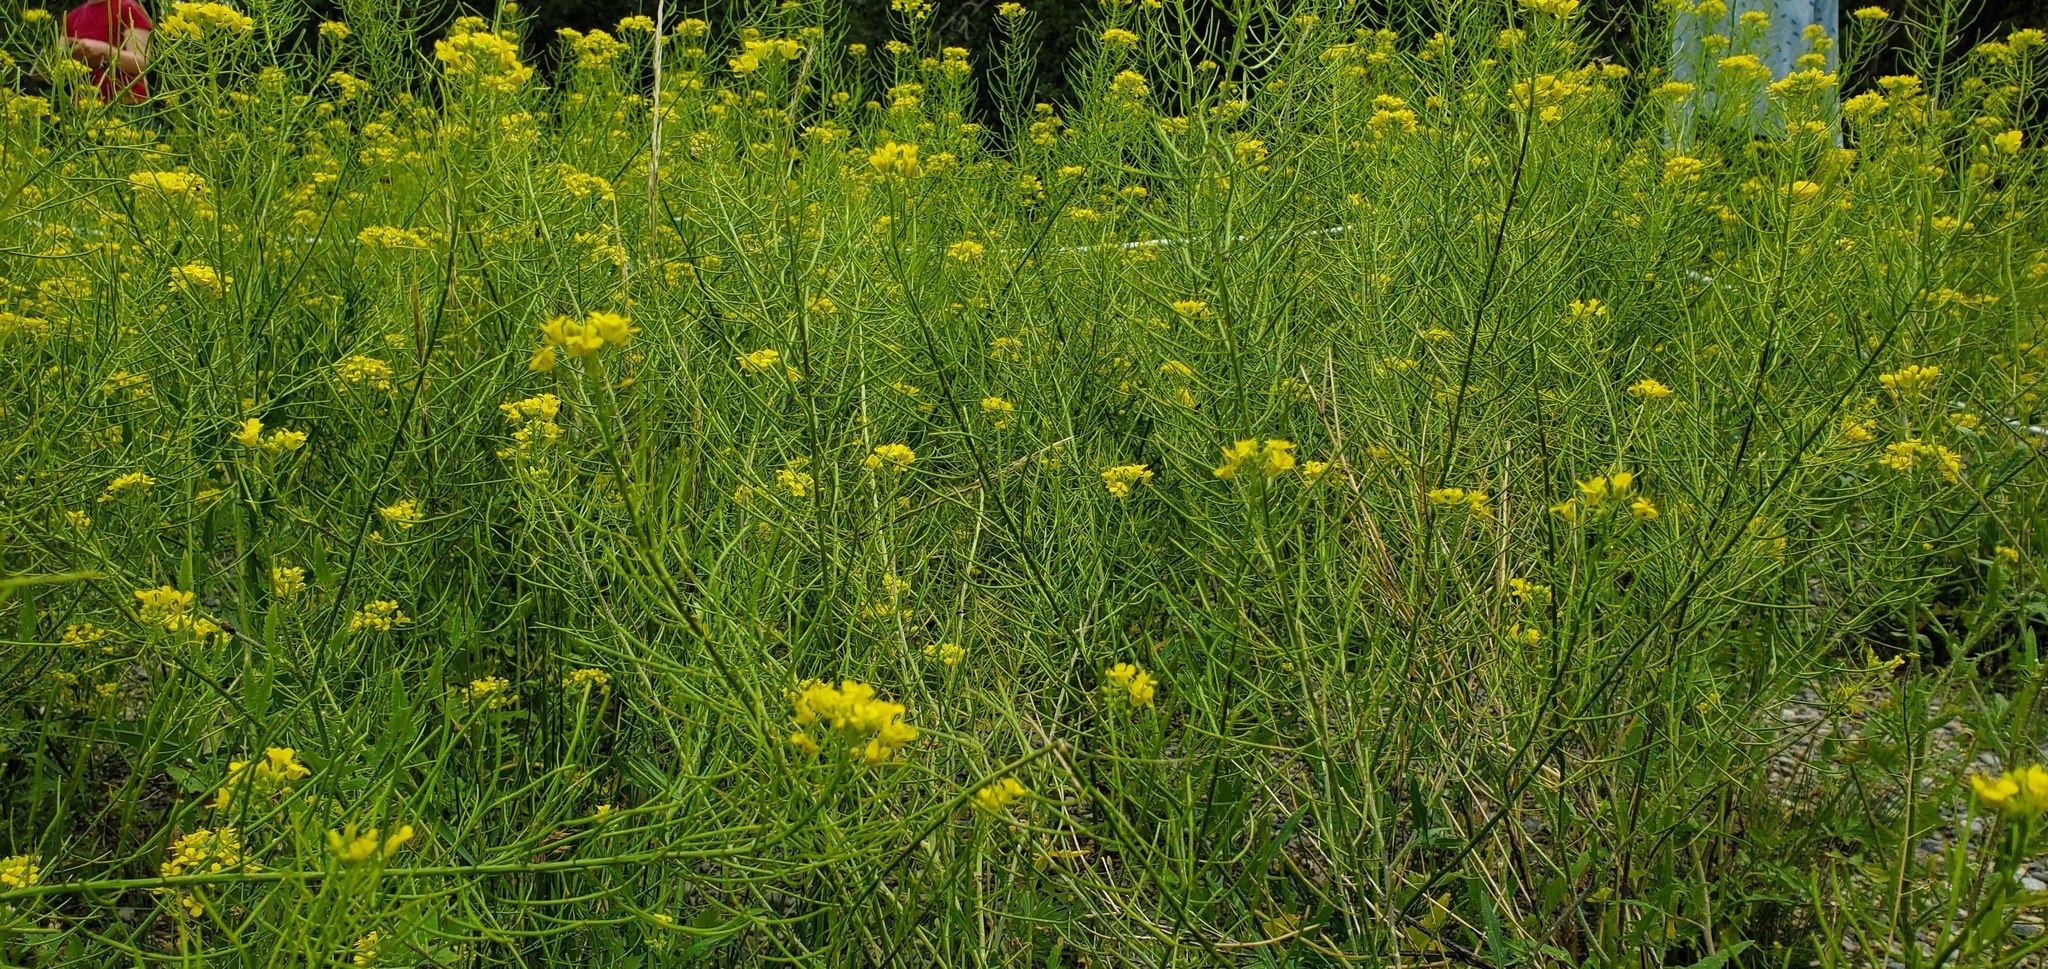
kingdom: Plantae
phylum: Tracheophyta
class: Magnoliopsida
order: Brassicales
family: Brassicaceae
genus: Sisymbrium
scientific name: Sisymbrium loeselii
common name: False london-rocket
